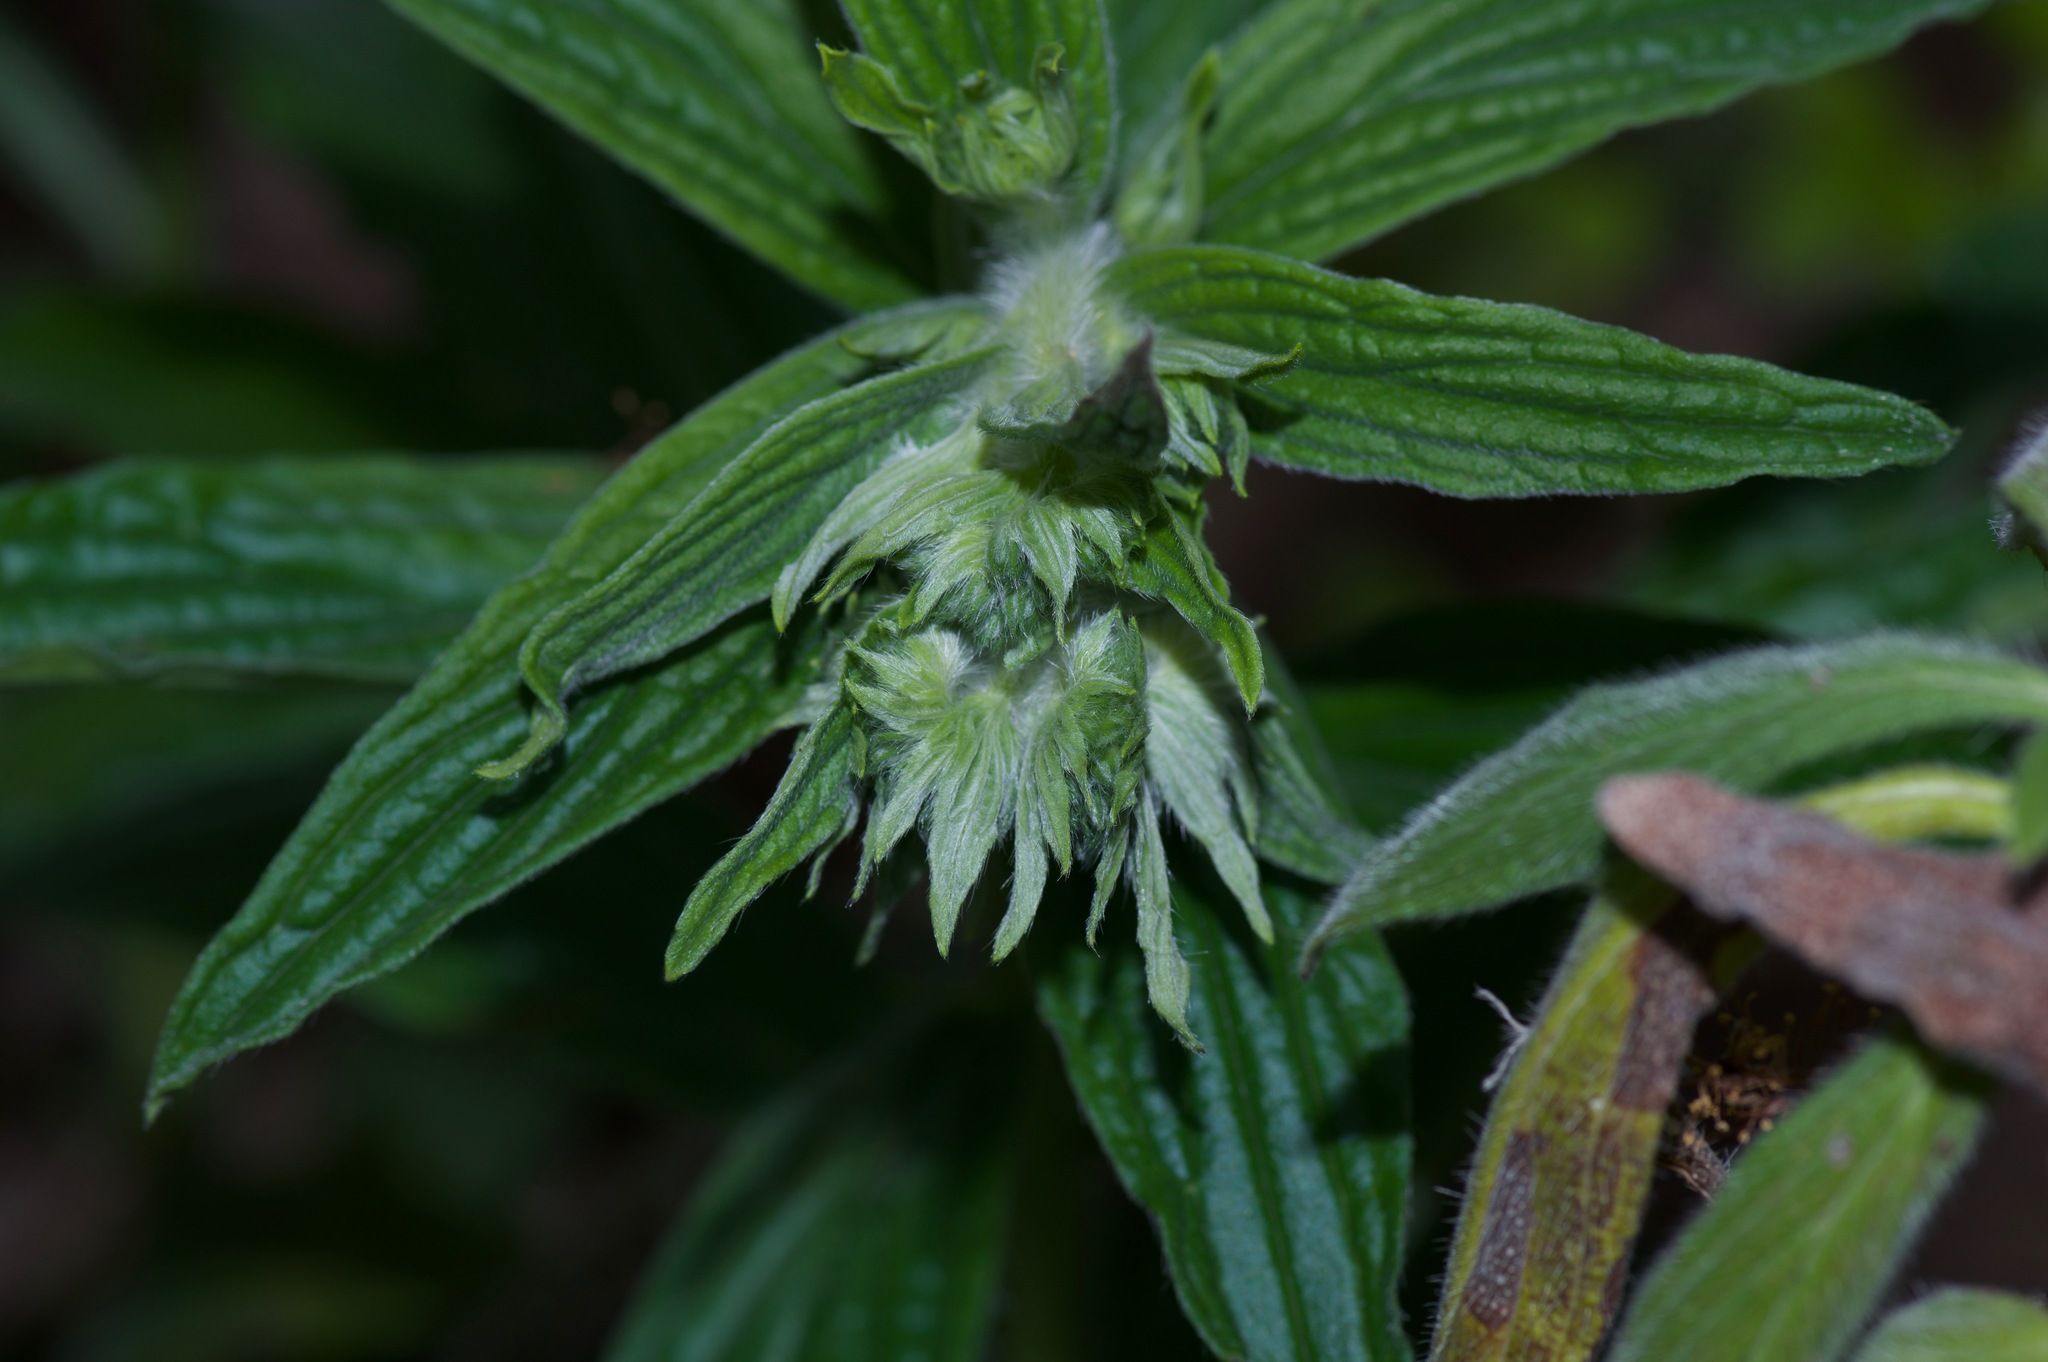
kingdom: Plantae
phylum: Tracheophyta
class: Magnoliopsida
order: Boraginales
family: Boraginaceae
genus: Lithospermum
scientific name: Lithospermum caroliniense
